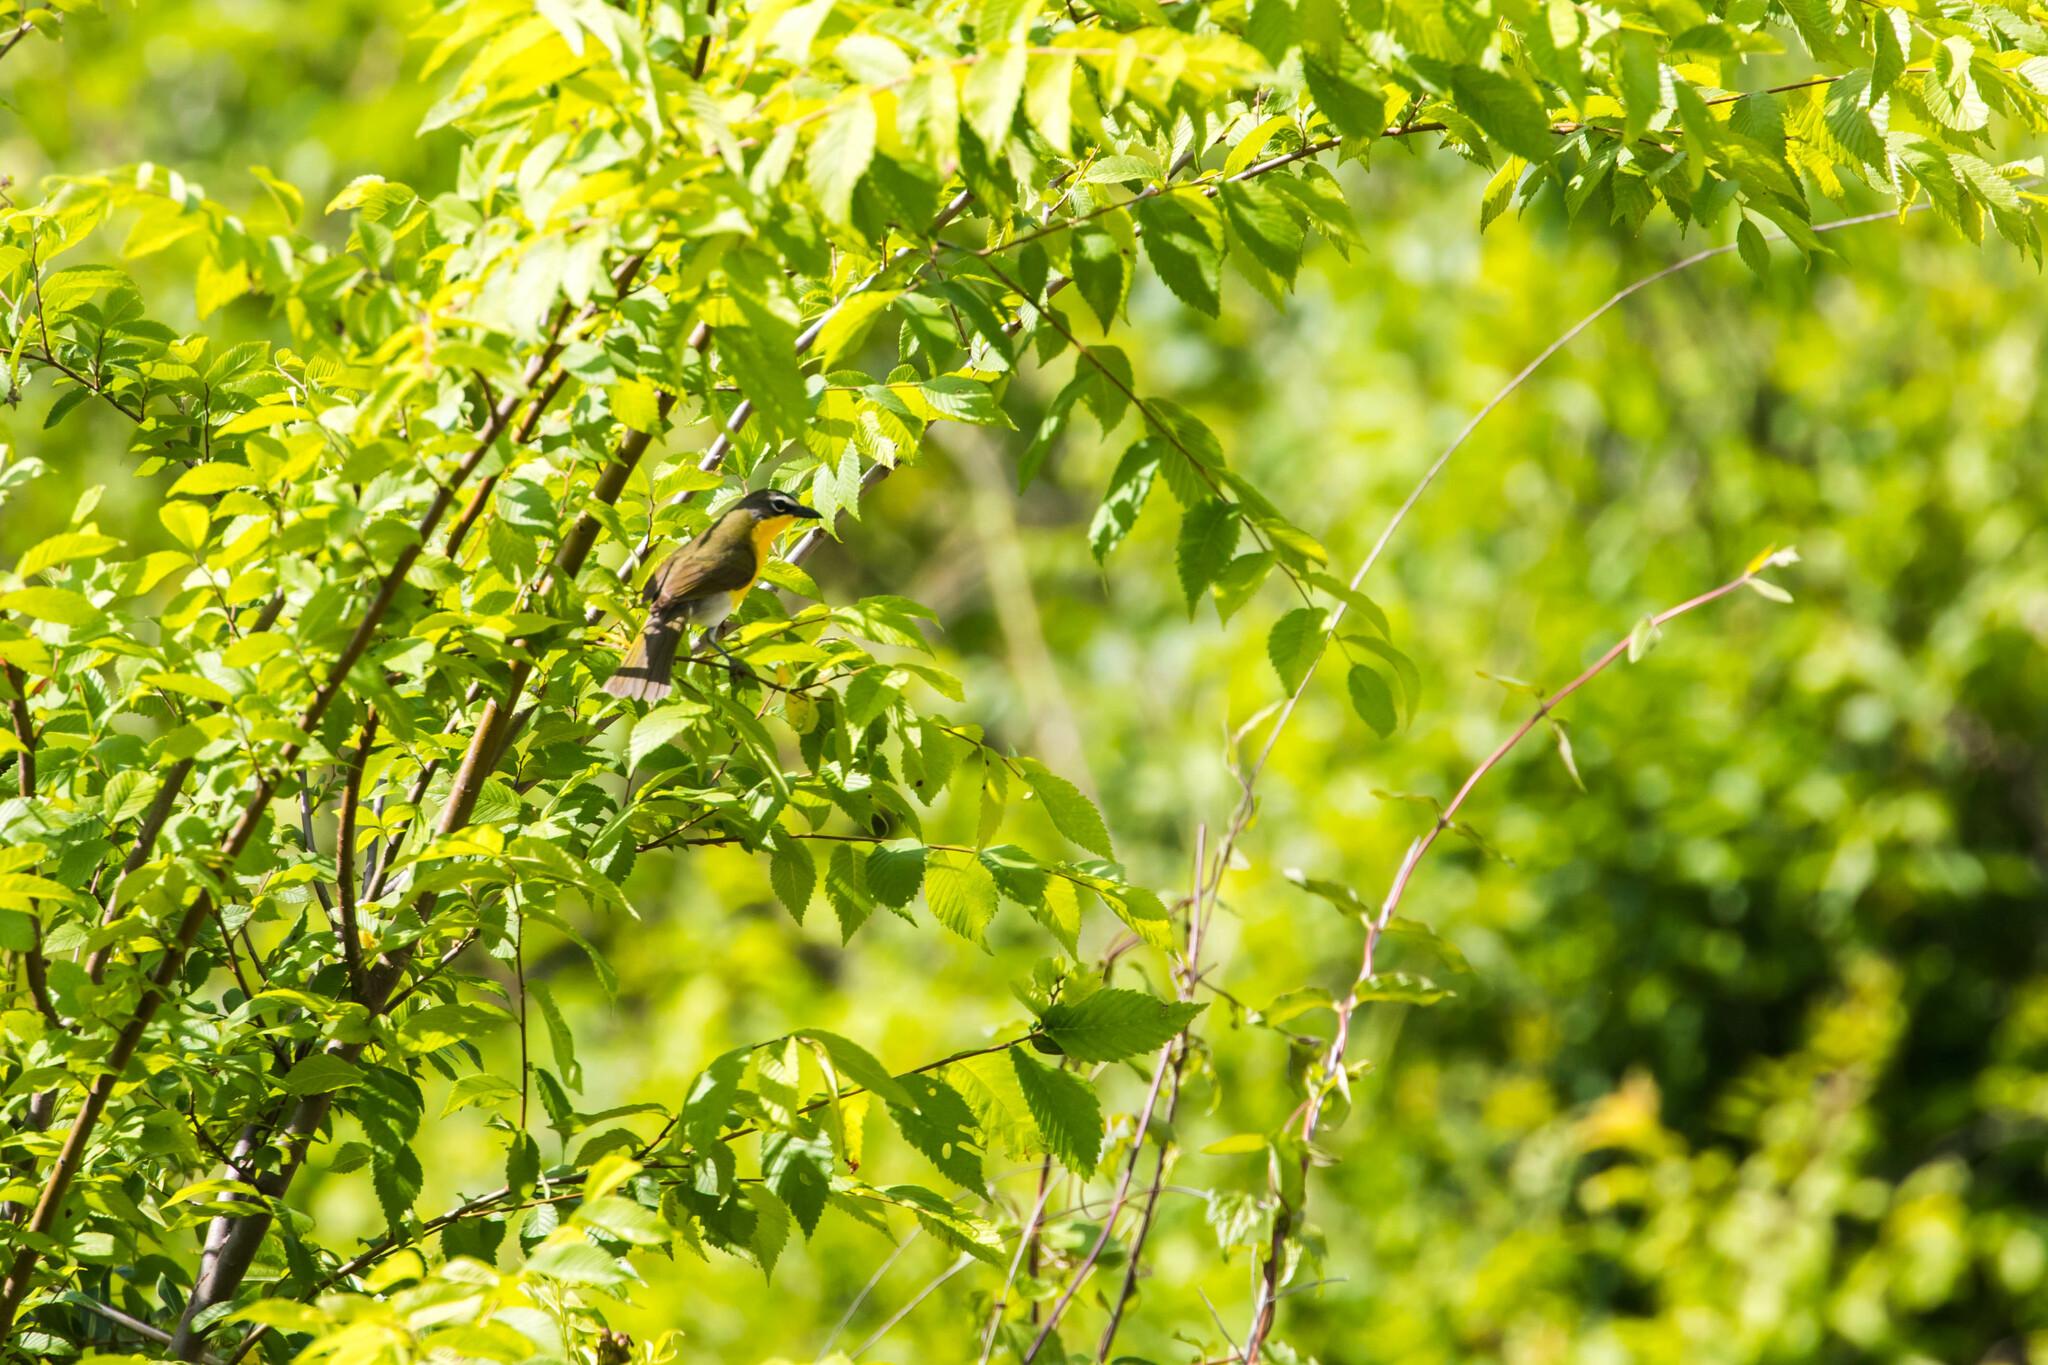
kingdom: Animalia
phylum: Chordata
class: Aves
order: Passeriformes
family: Parulidae
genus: Icteria
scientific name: Icteria virens
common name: Yellow-breasted chat
